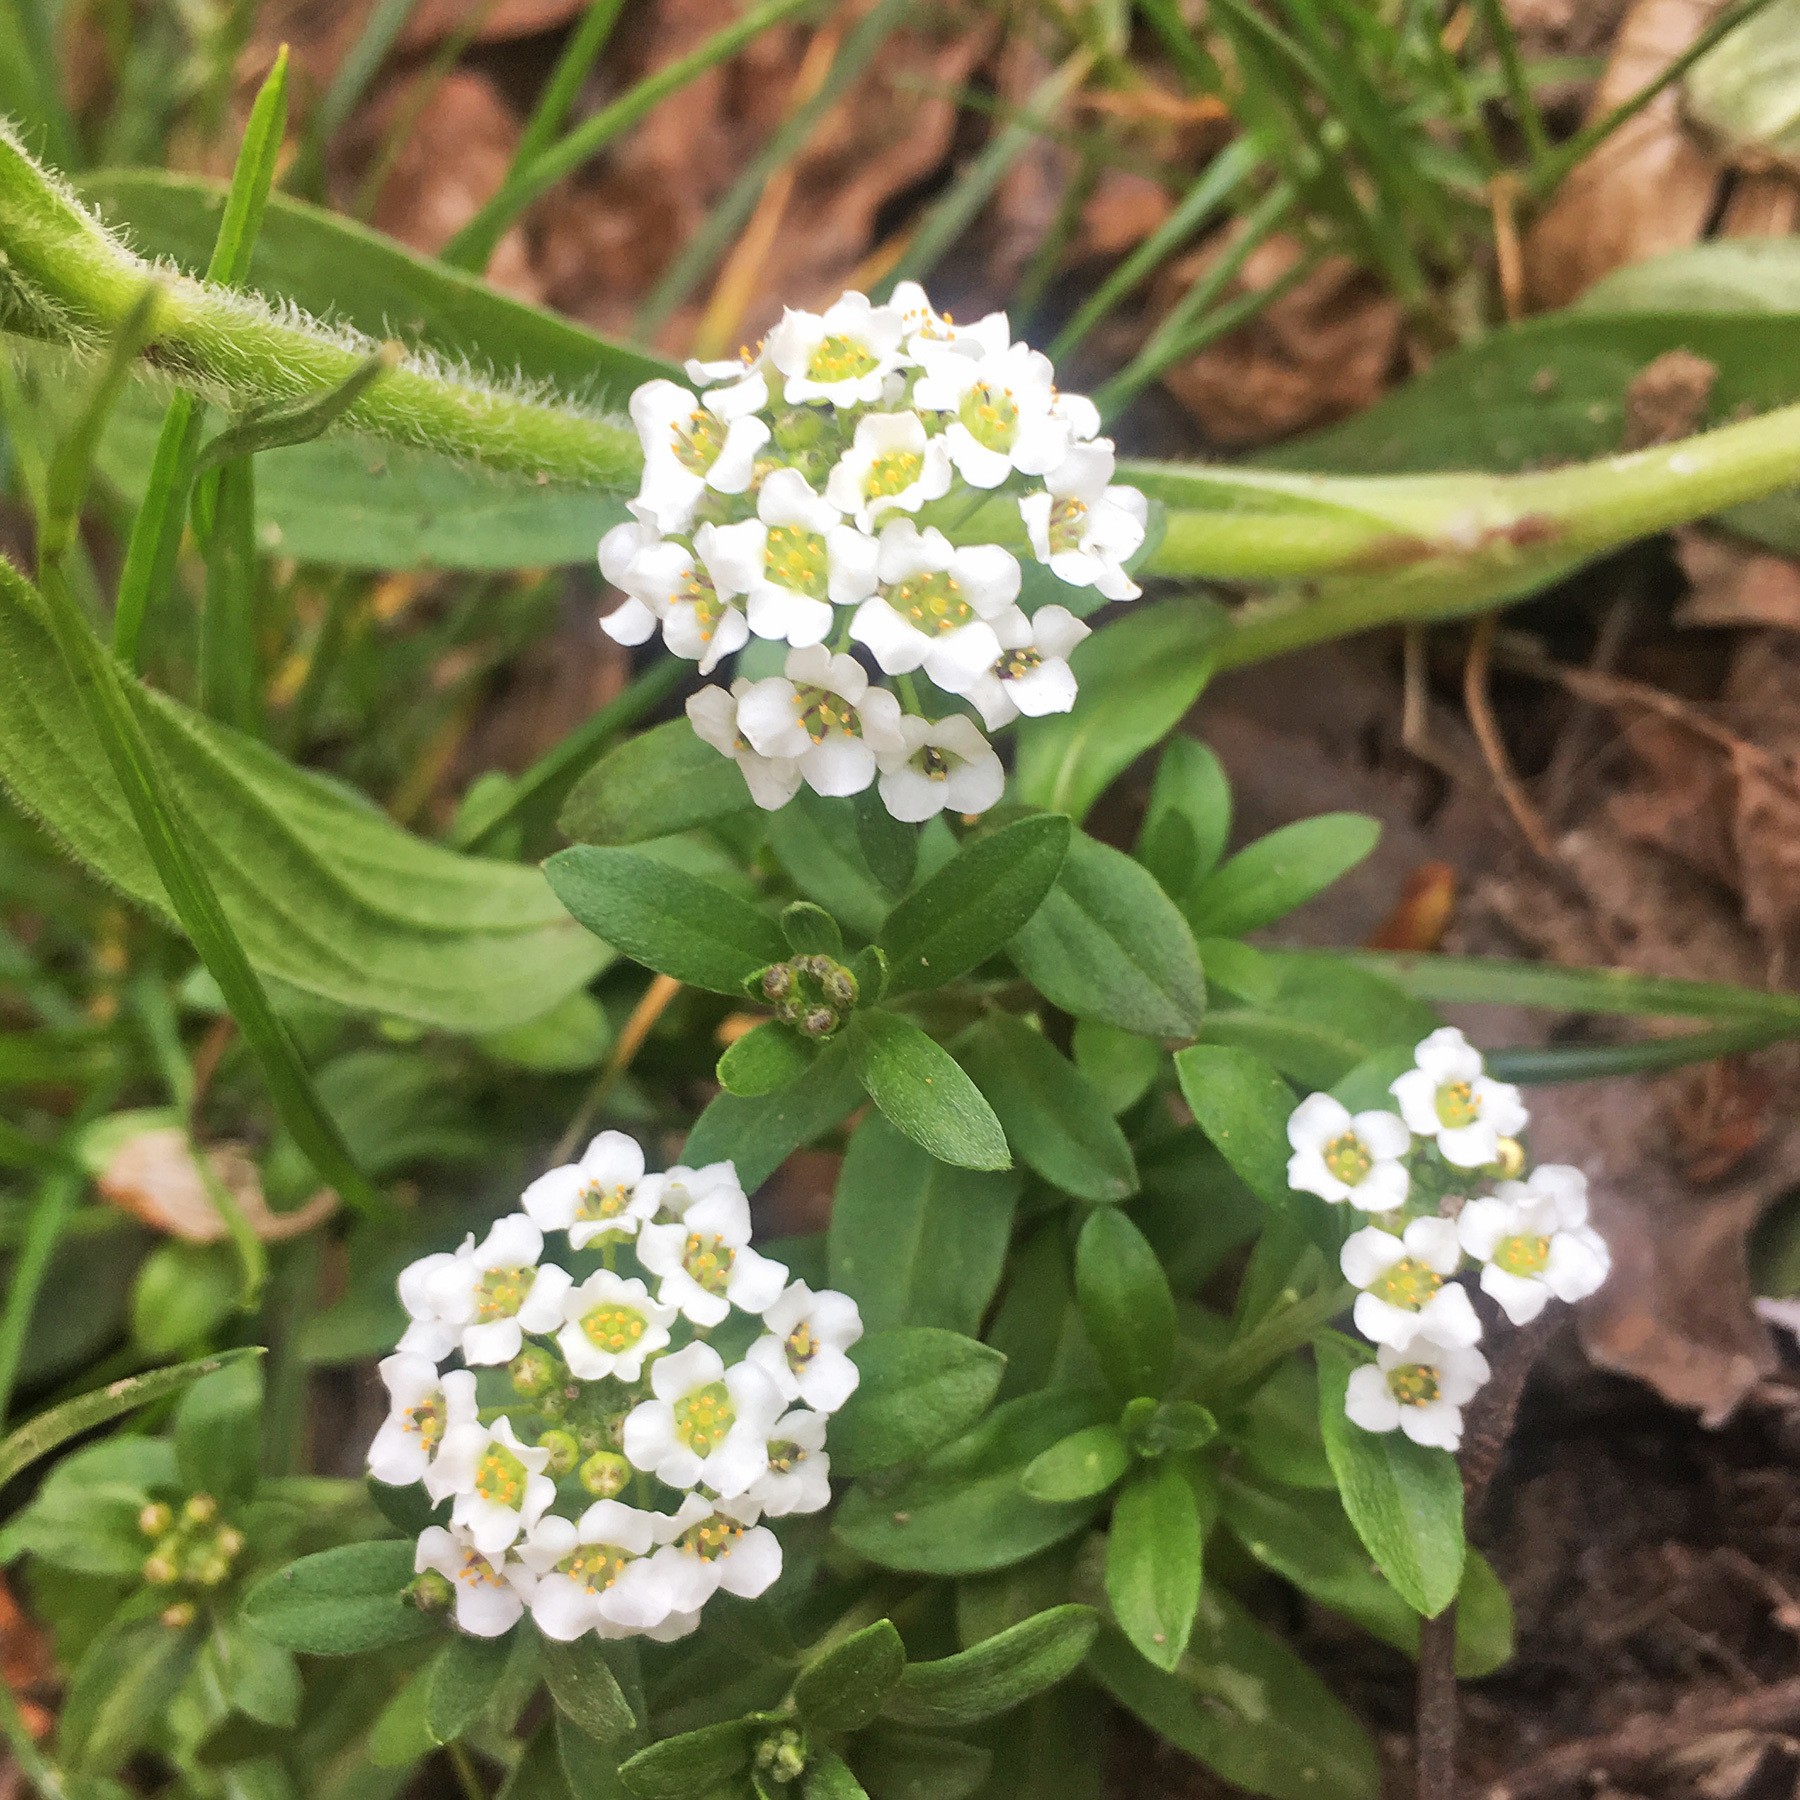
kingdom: Plantae
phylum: Tracheophyta
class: Magnoliopsida
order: Brassicales
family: Brassicaceae
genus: Lobularia
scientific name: Lobularia maritima
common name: Sweet alison
